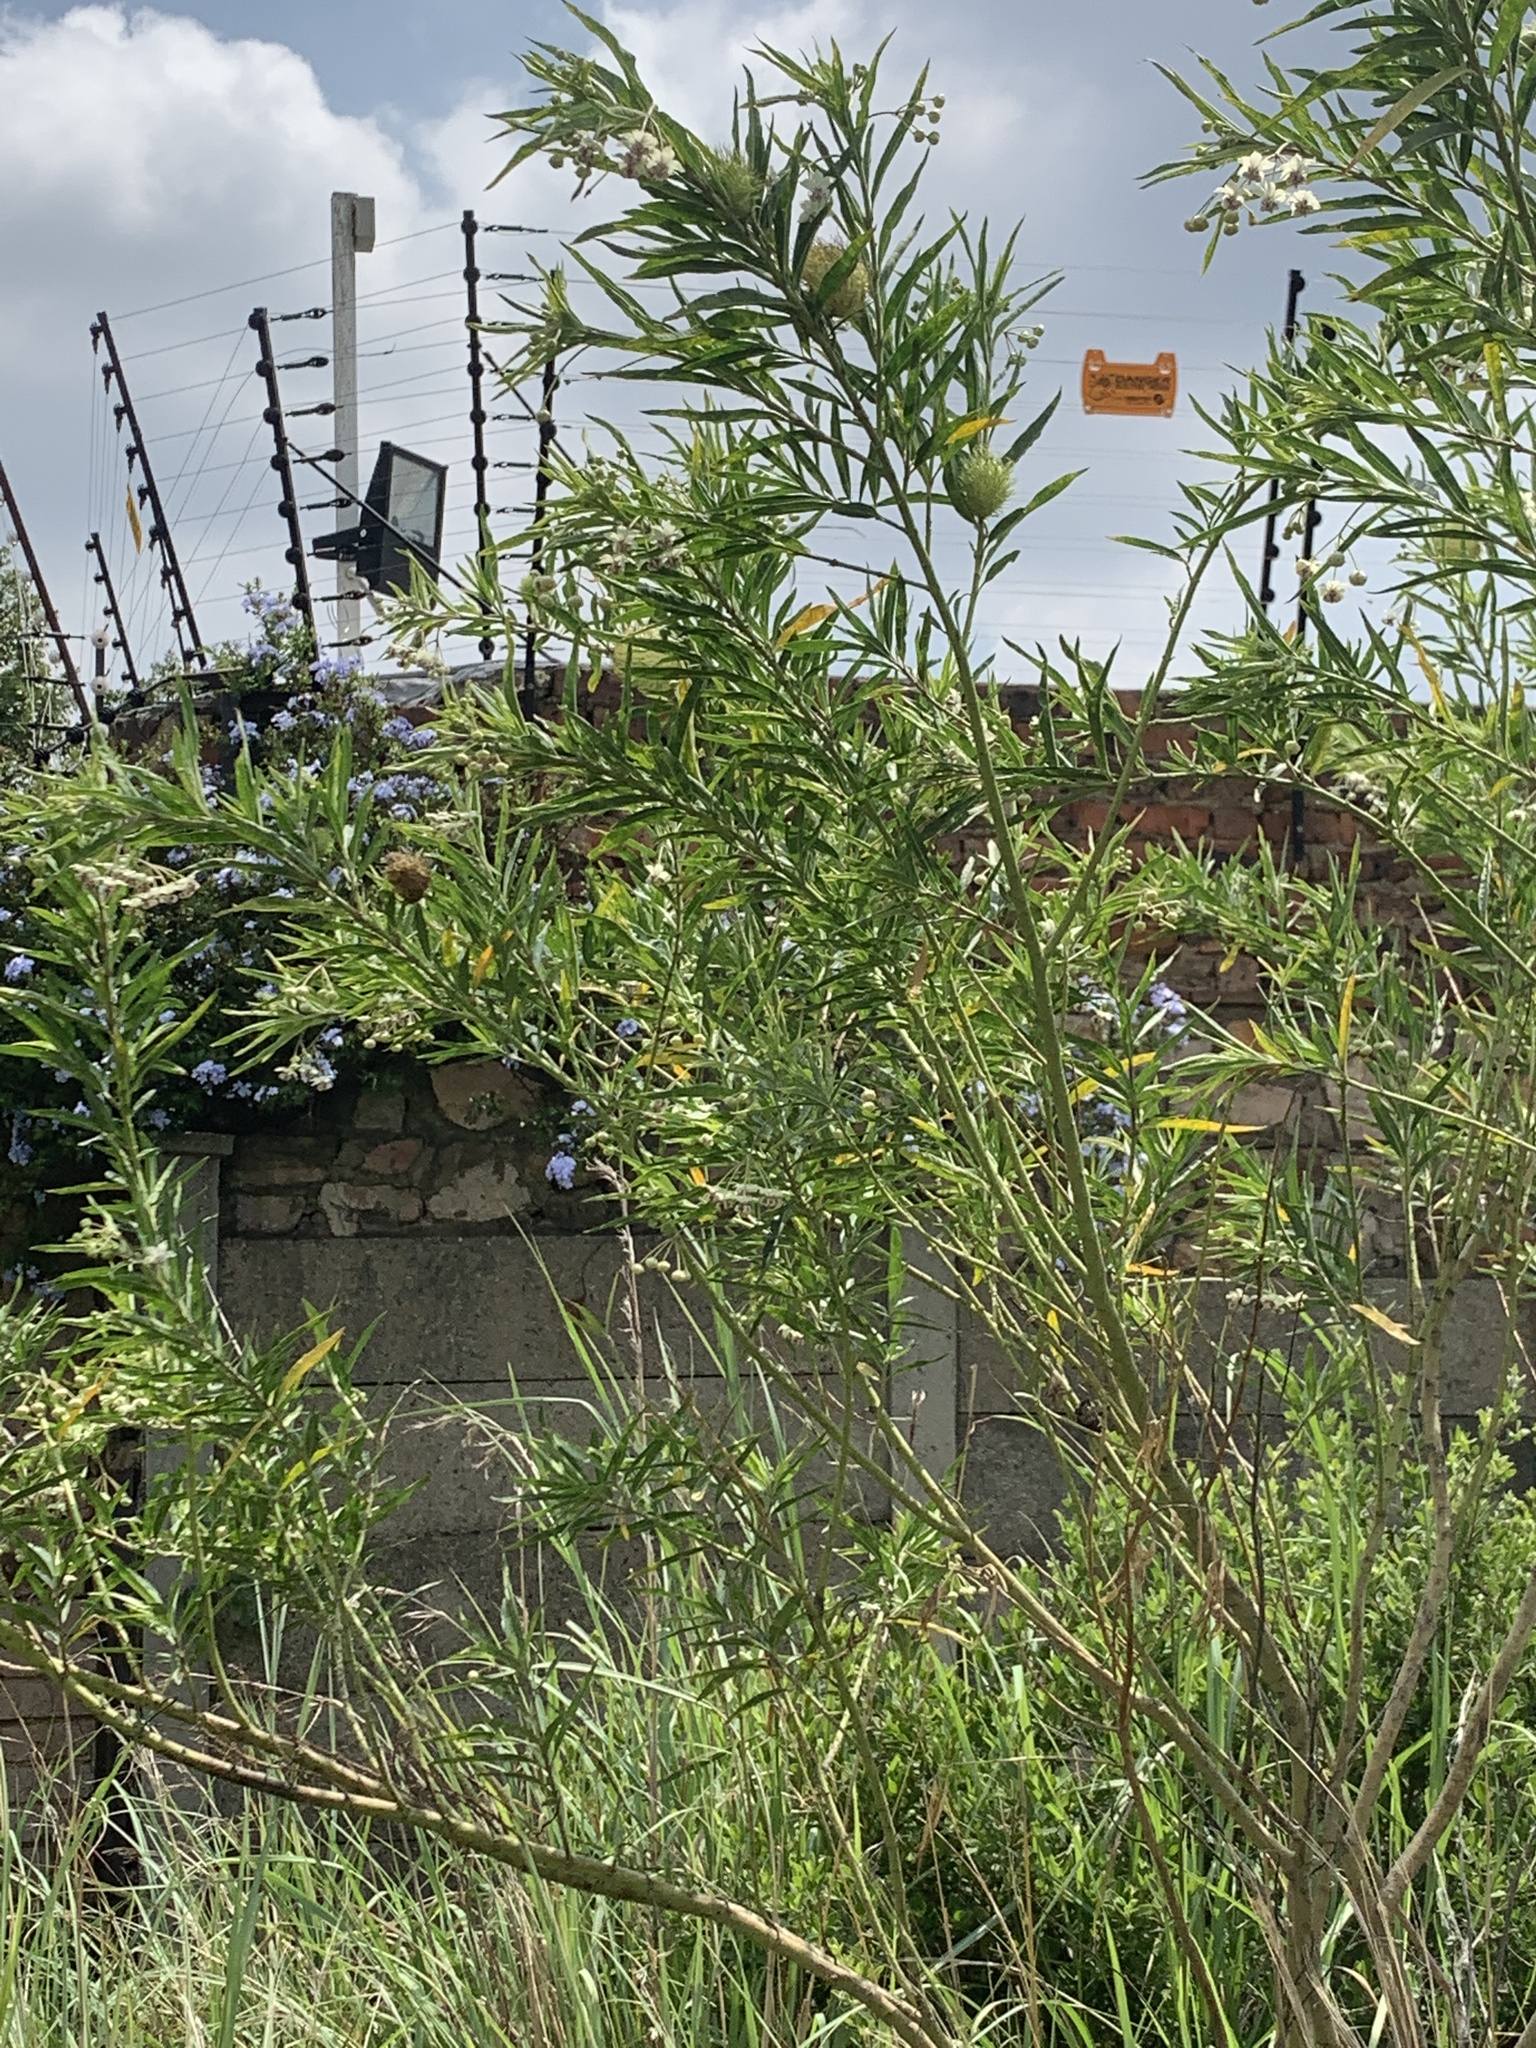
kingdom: Plantae
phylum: Tracheophyta
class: Magnoliopsida
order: Gentianales
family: Apocynaceae
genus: Gomphocarpus
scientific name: Gomphocarpus physocarpus
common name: Balloon cotton bush
